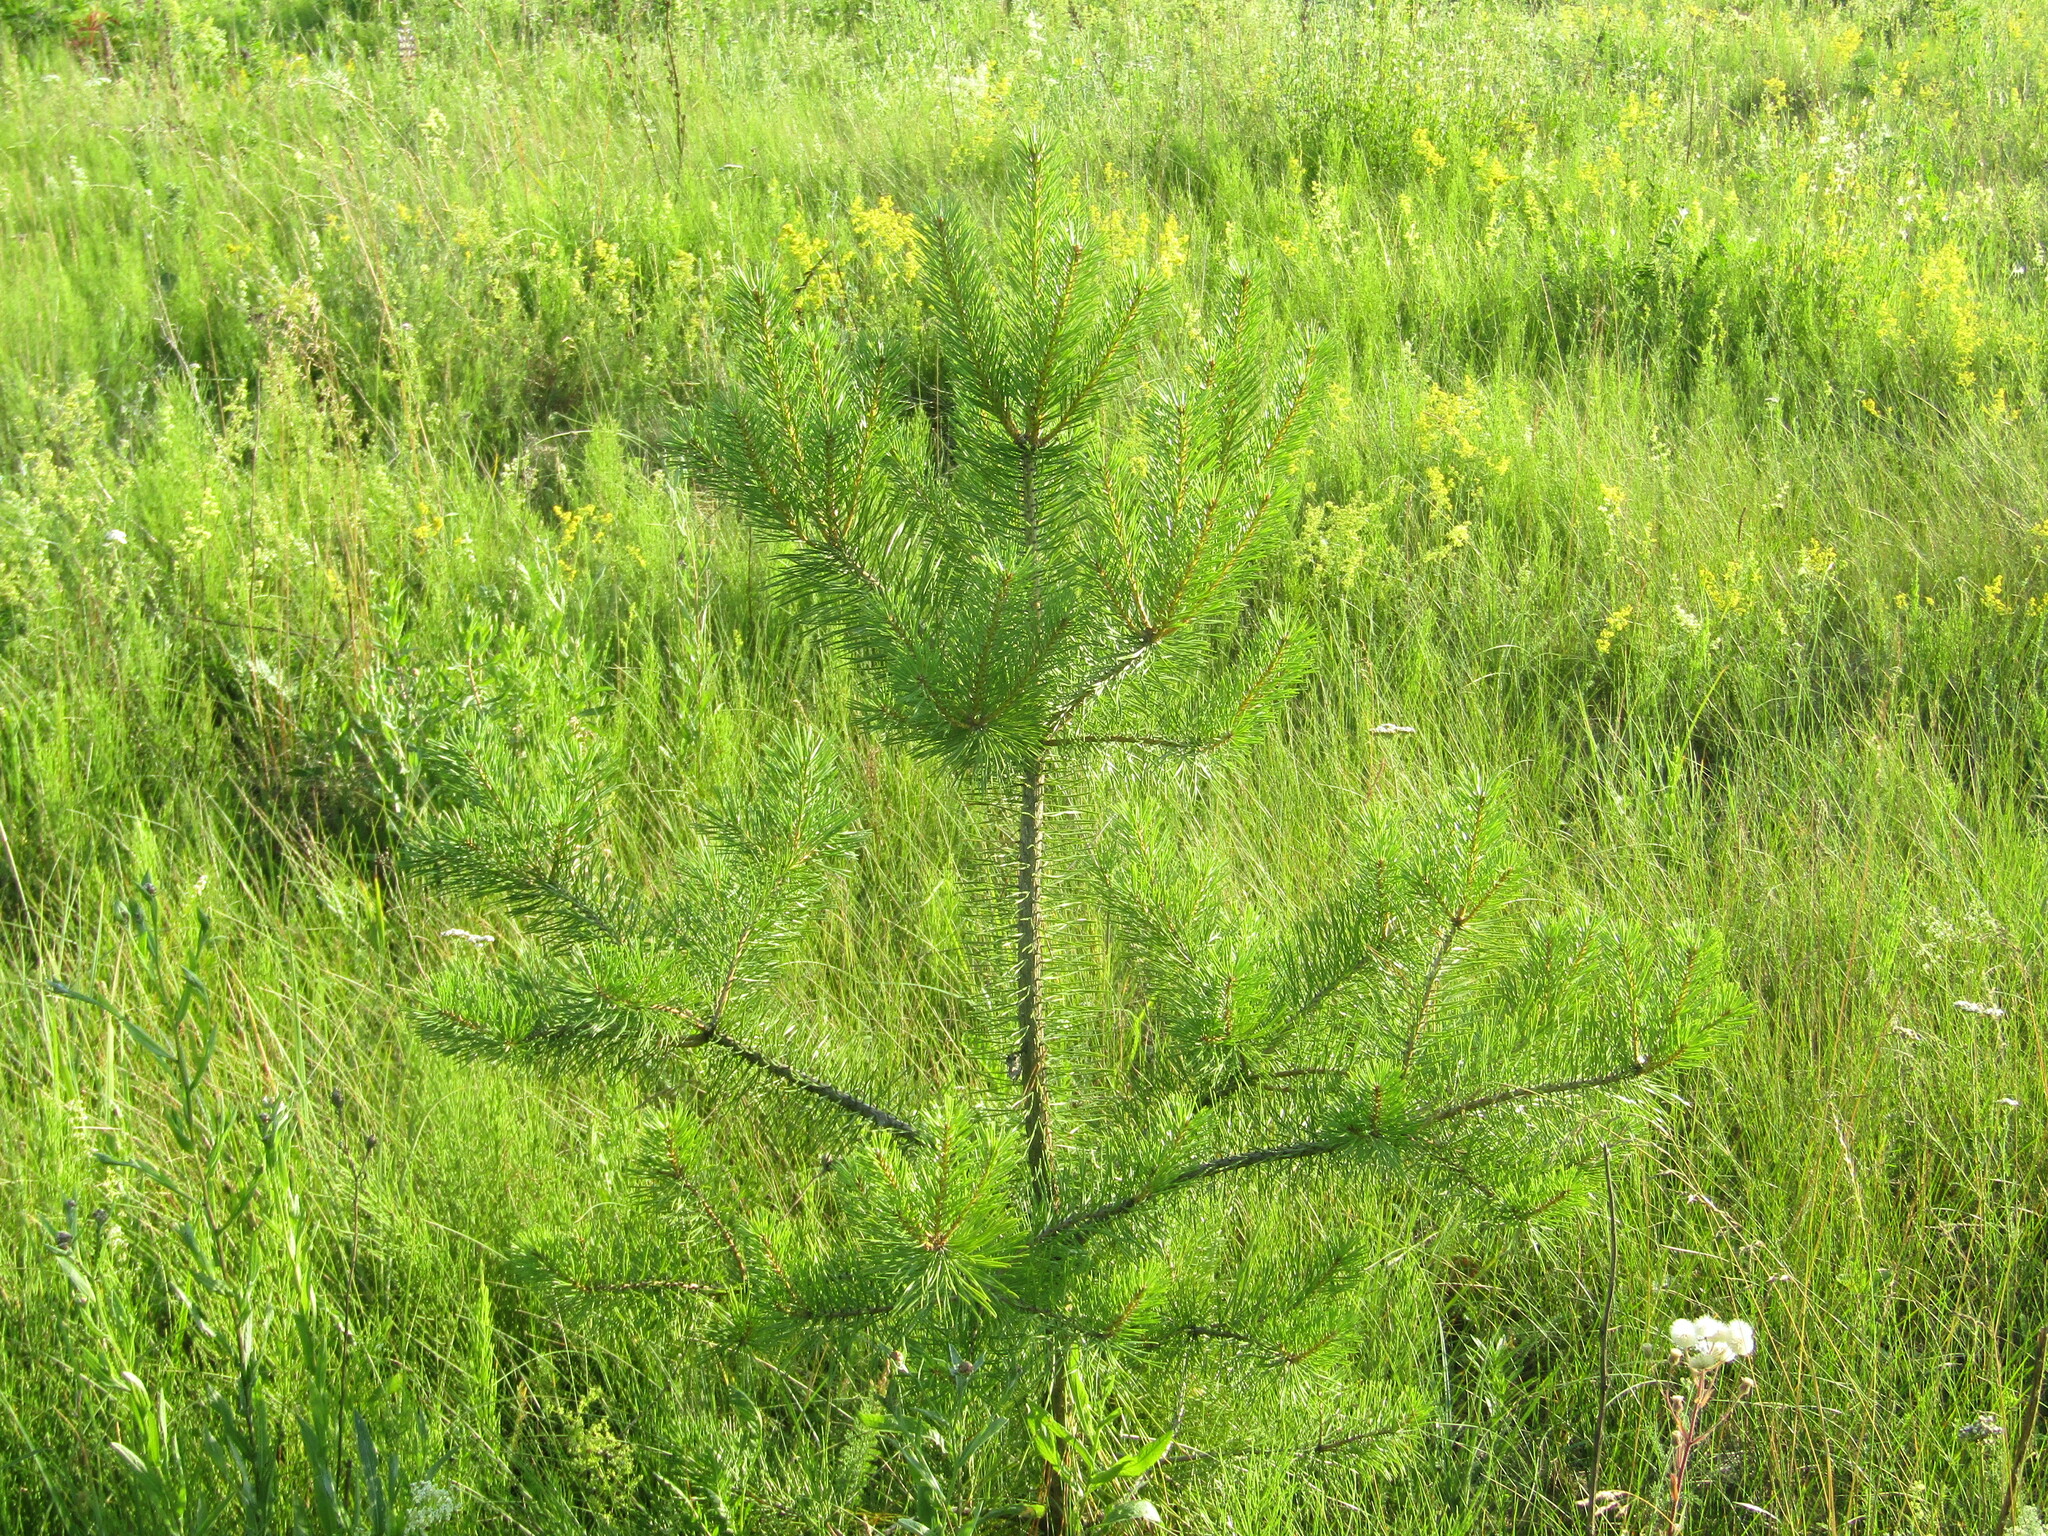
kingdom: Plantae
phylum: Tracheophyta
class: Pinopsida
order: Pinales
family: Pinaceae
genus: Pinus
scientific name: Pinus sylvestris
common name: Scots pine
